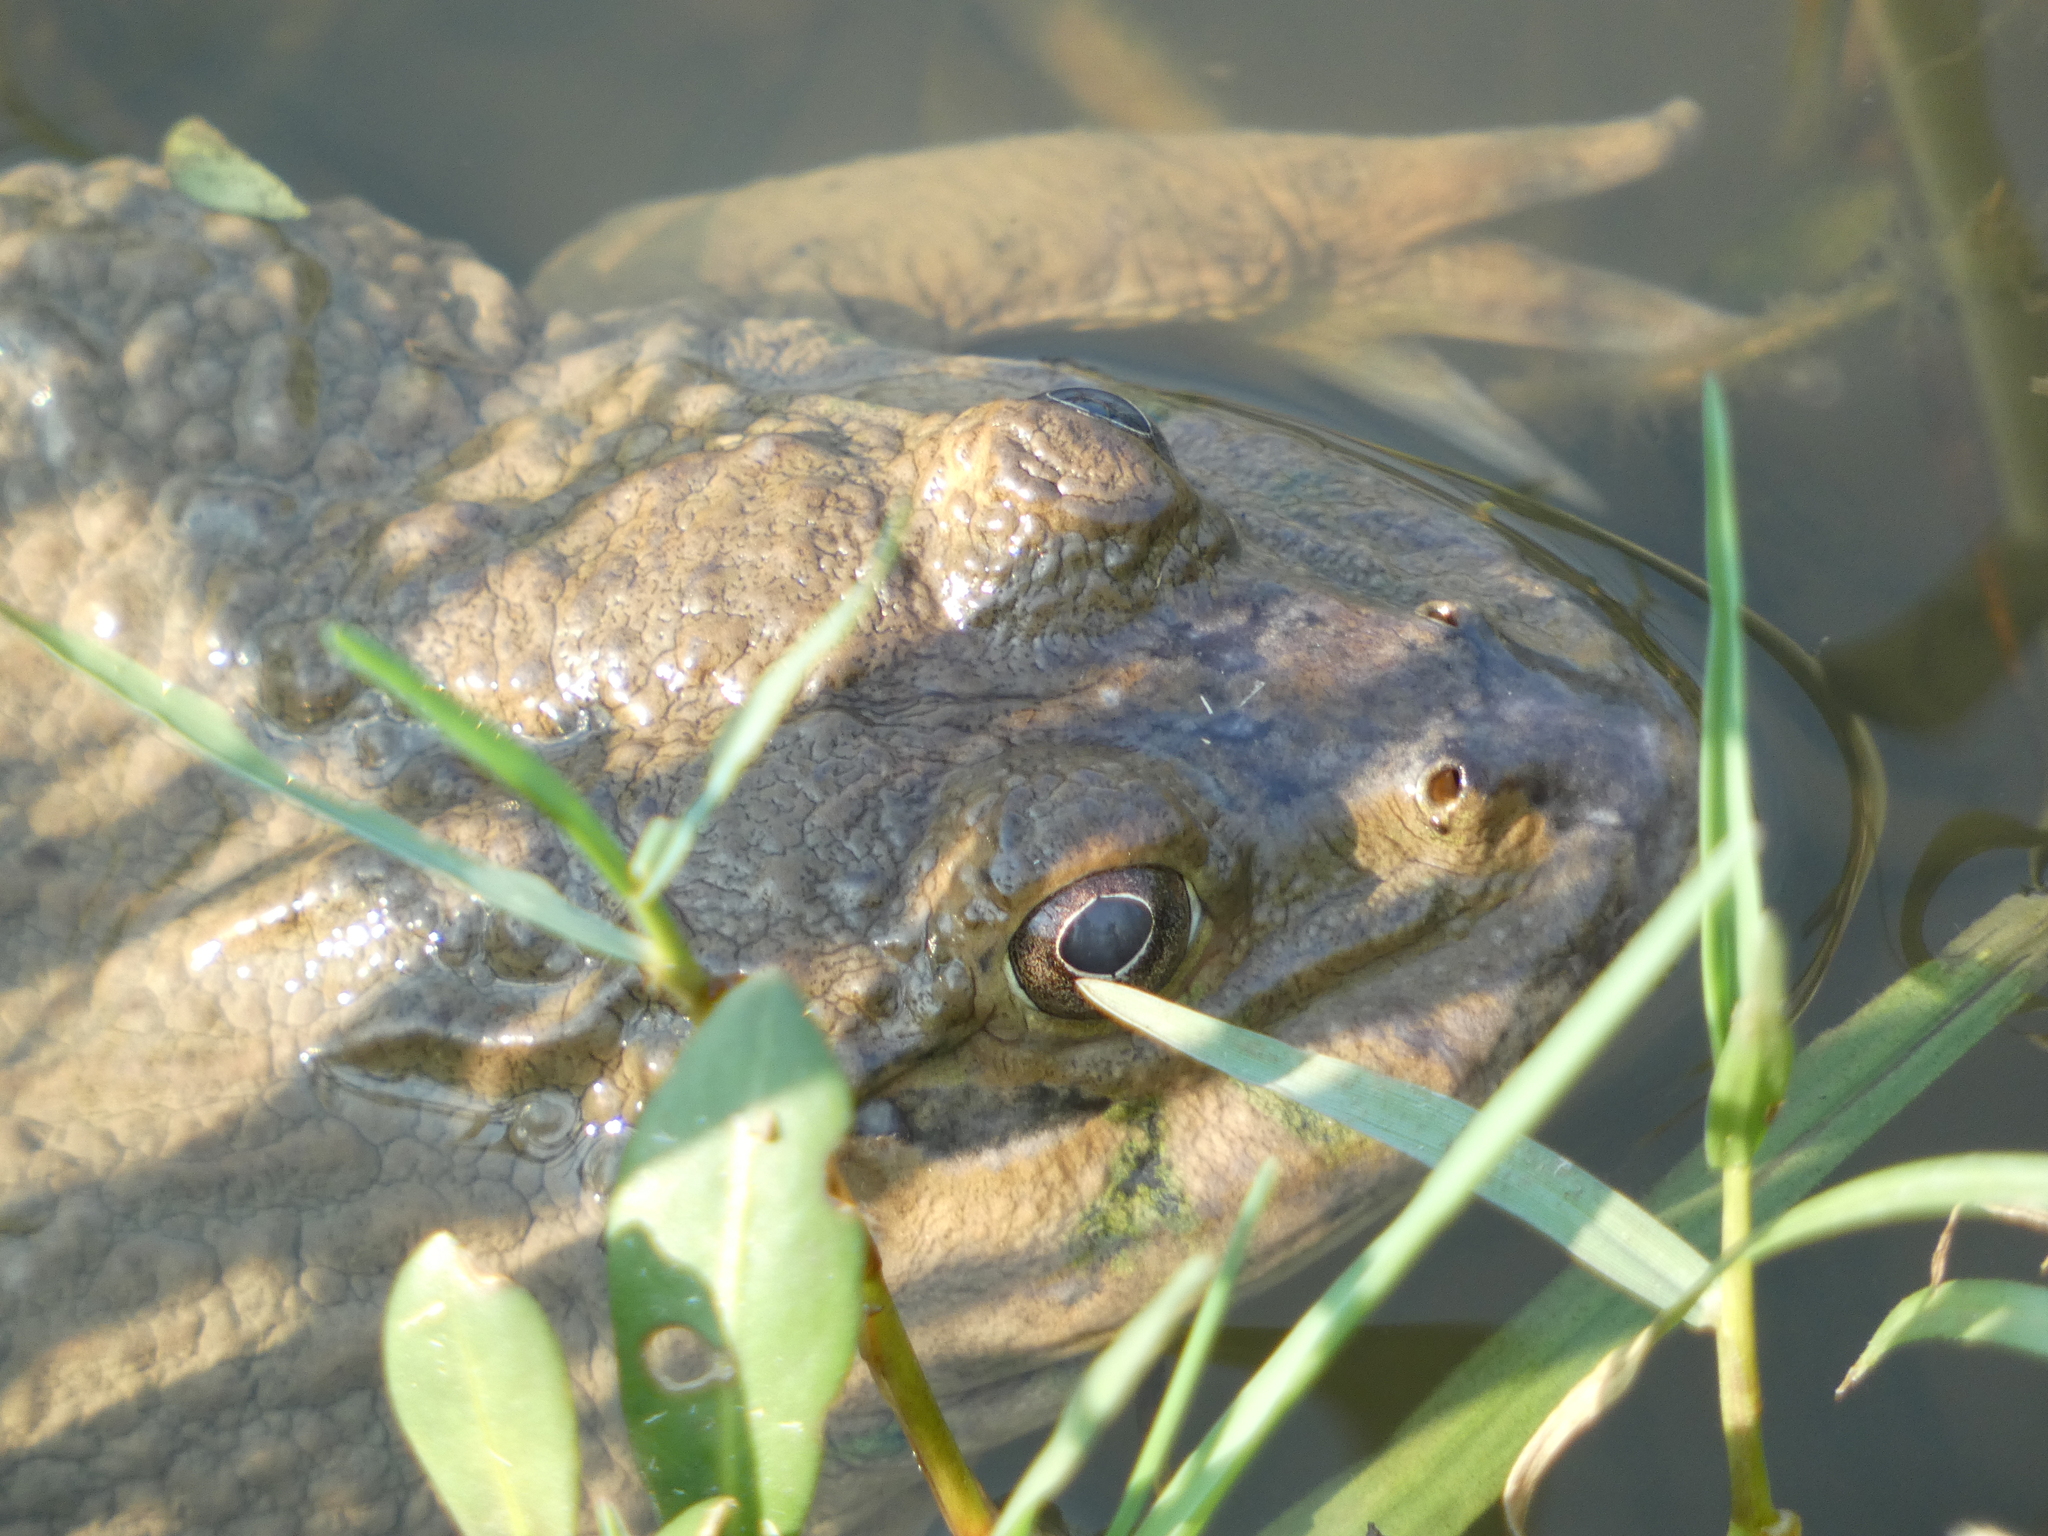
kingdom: Animalia
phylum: Chordata
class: Amphibia
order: Anura
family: Dicroglossidae
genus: Hoplobatrachus
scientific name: Hoplobatrachus rugulosus
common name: Chinese edible frog
